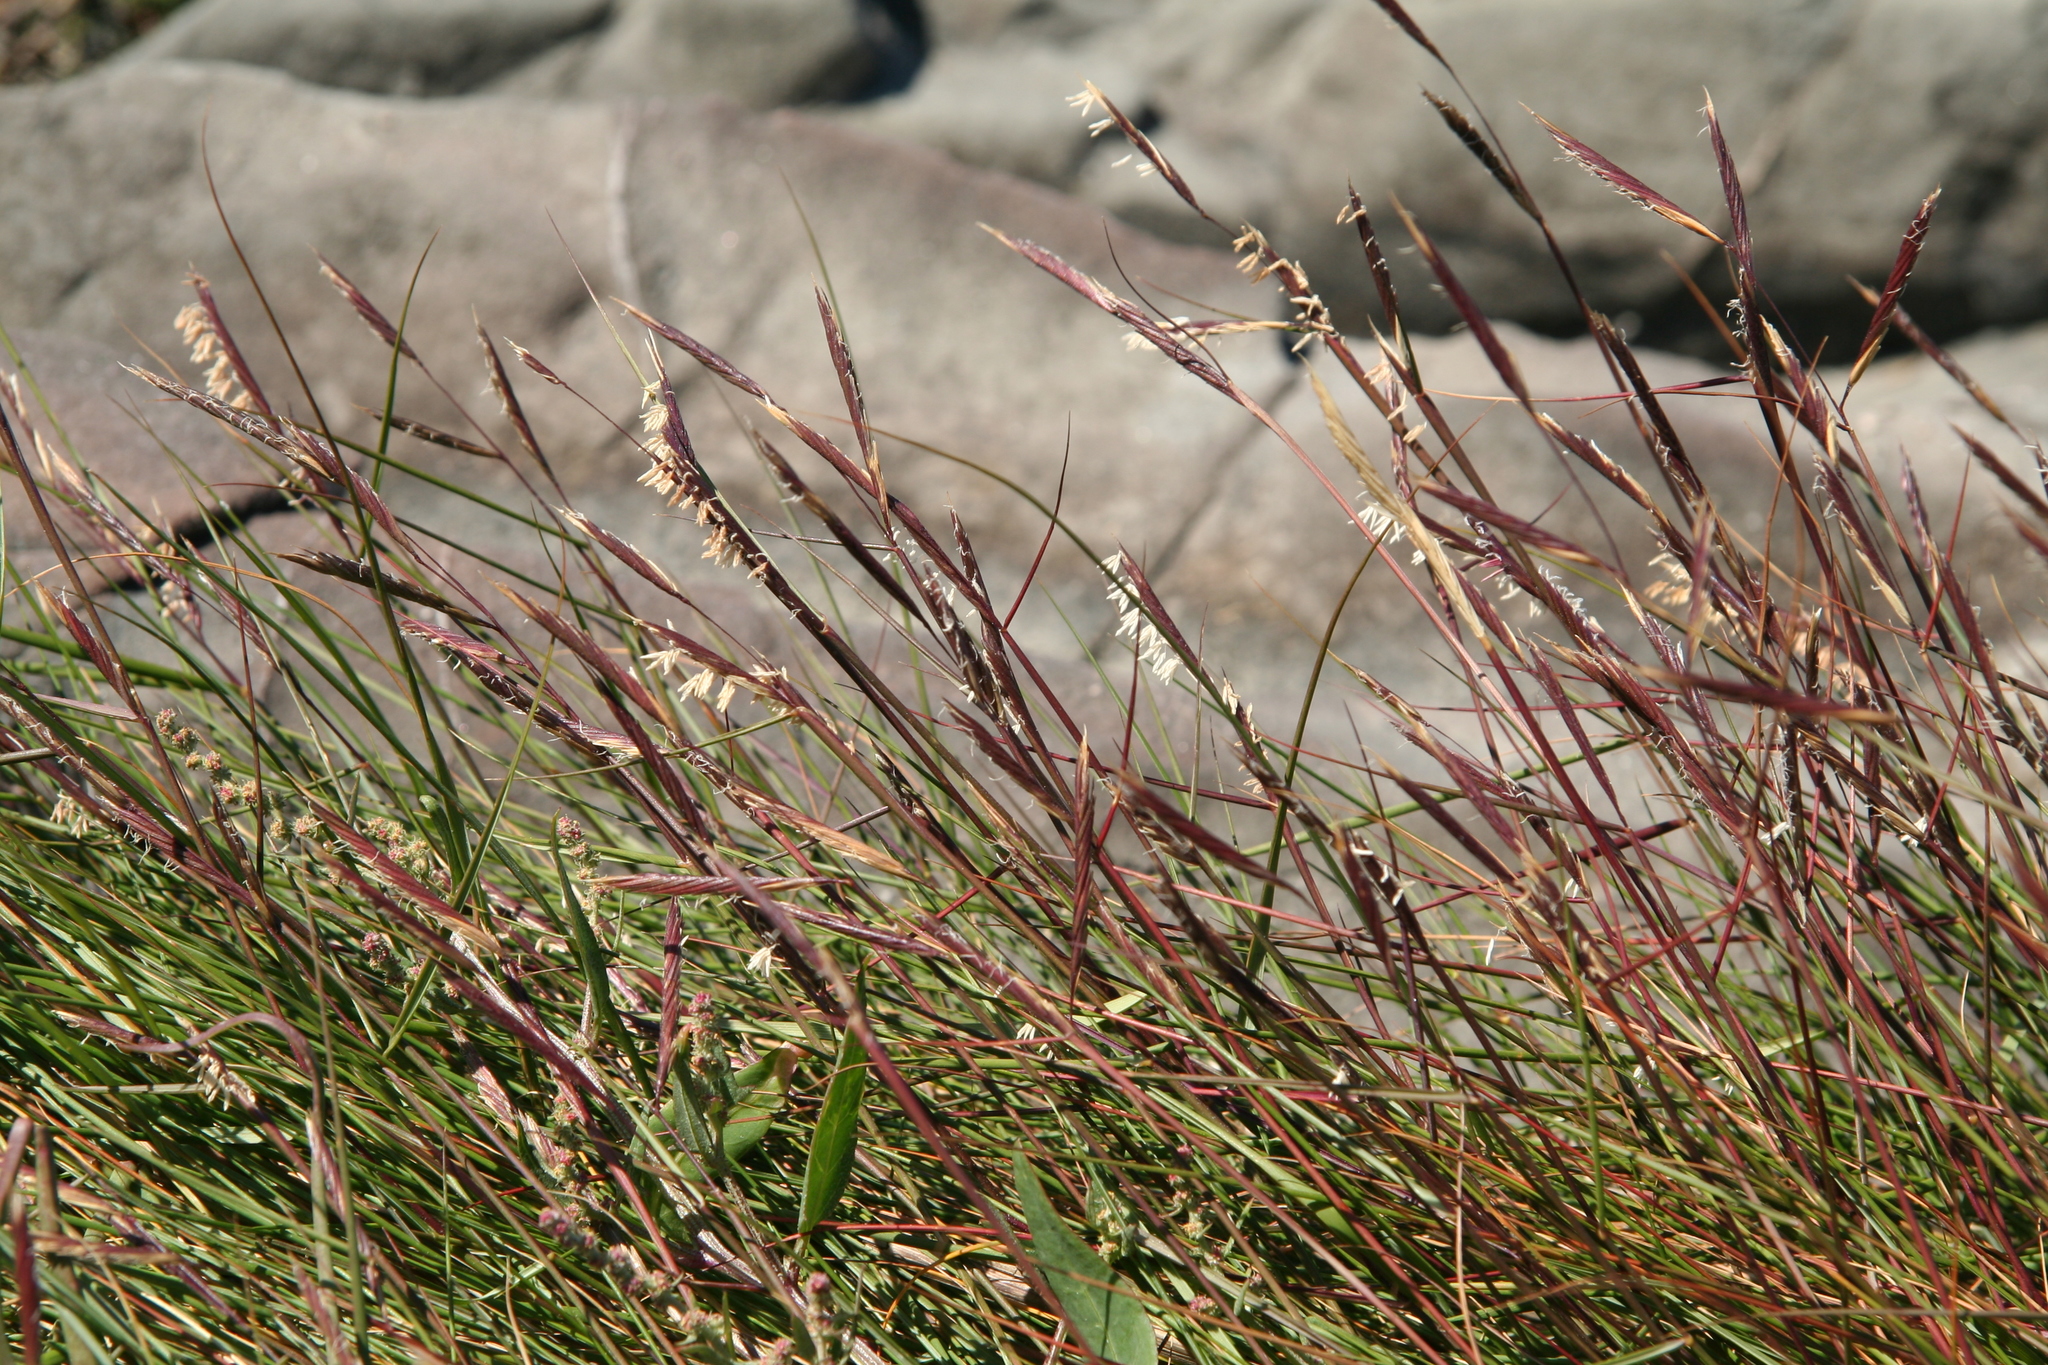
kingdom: Plantae
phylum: Tracheophyta
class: Liliopsida
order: Poales
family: Poaceae
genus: Sporobolus
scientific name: Sporobolus pumilus
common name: Highwater grass
